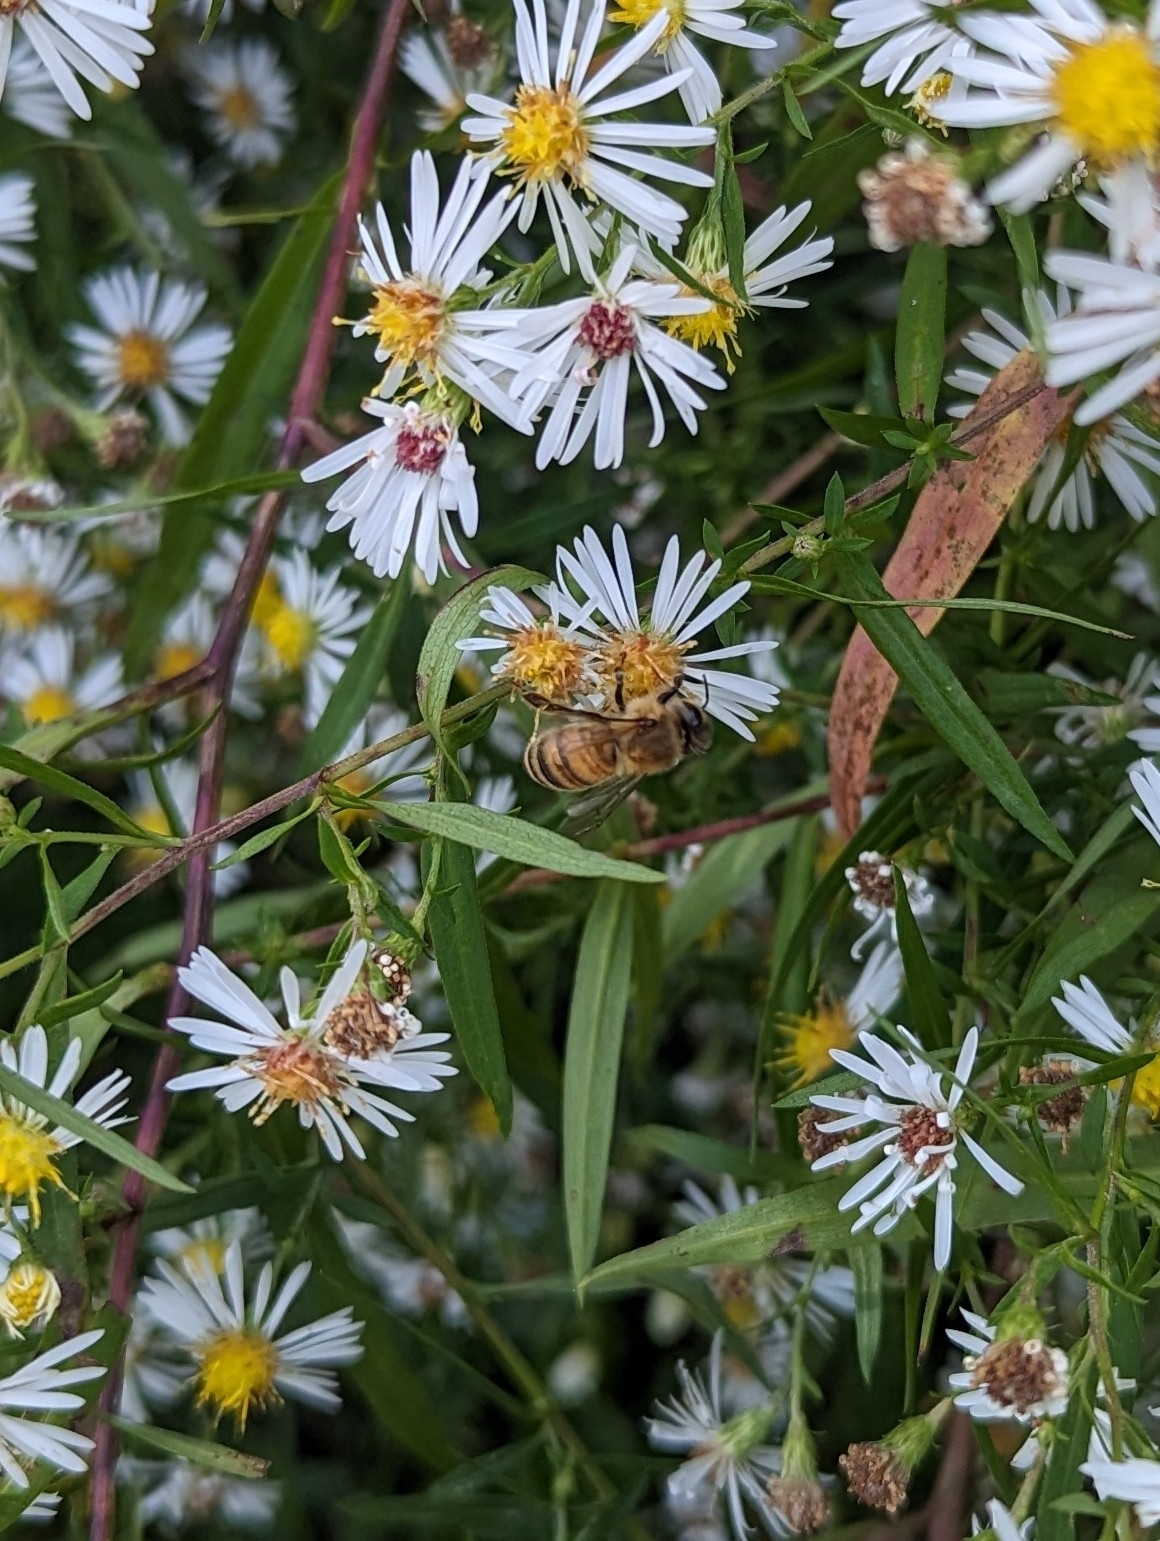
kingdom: Animalia
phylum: Arthropoda
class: Insecta
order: Hymenoptera
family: Apidae
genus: Apis
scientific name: Apis mellifera
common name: Honey bee
